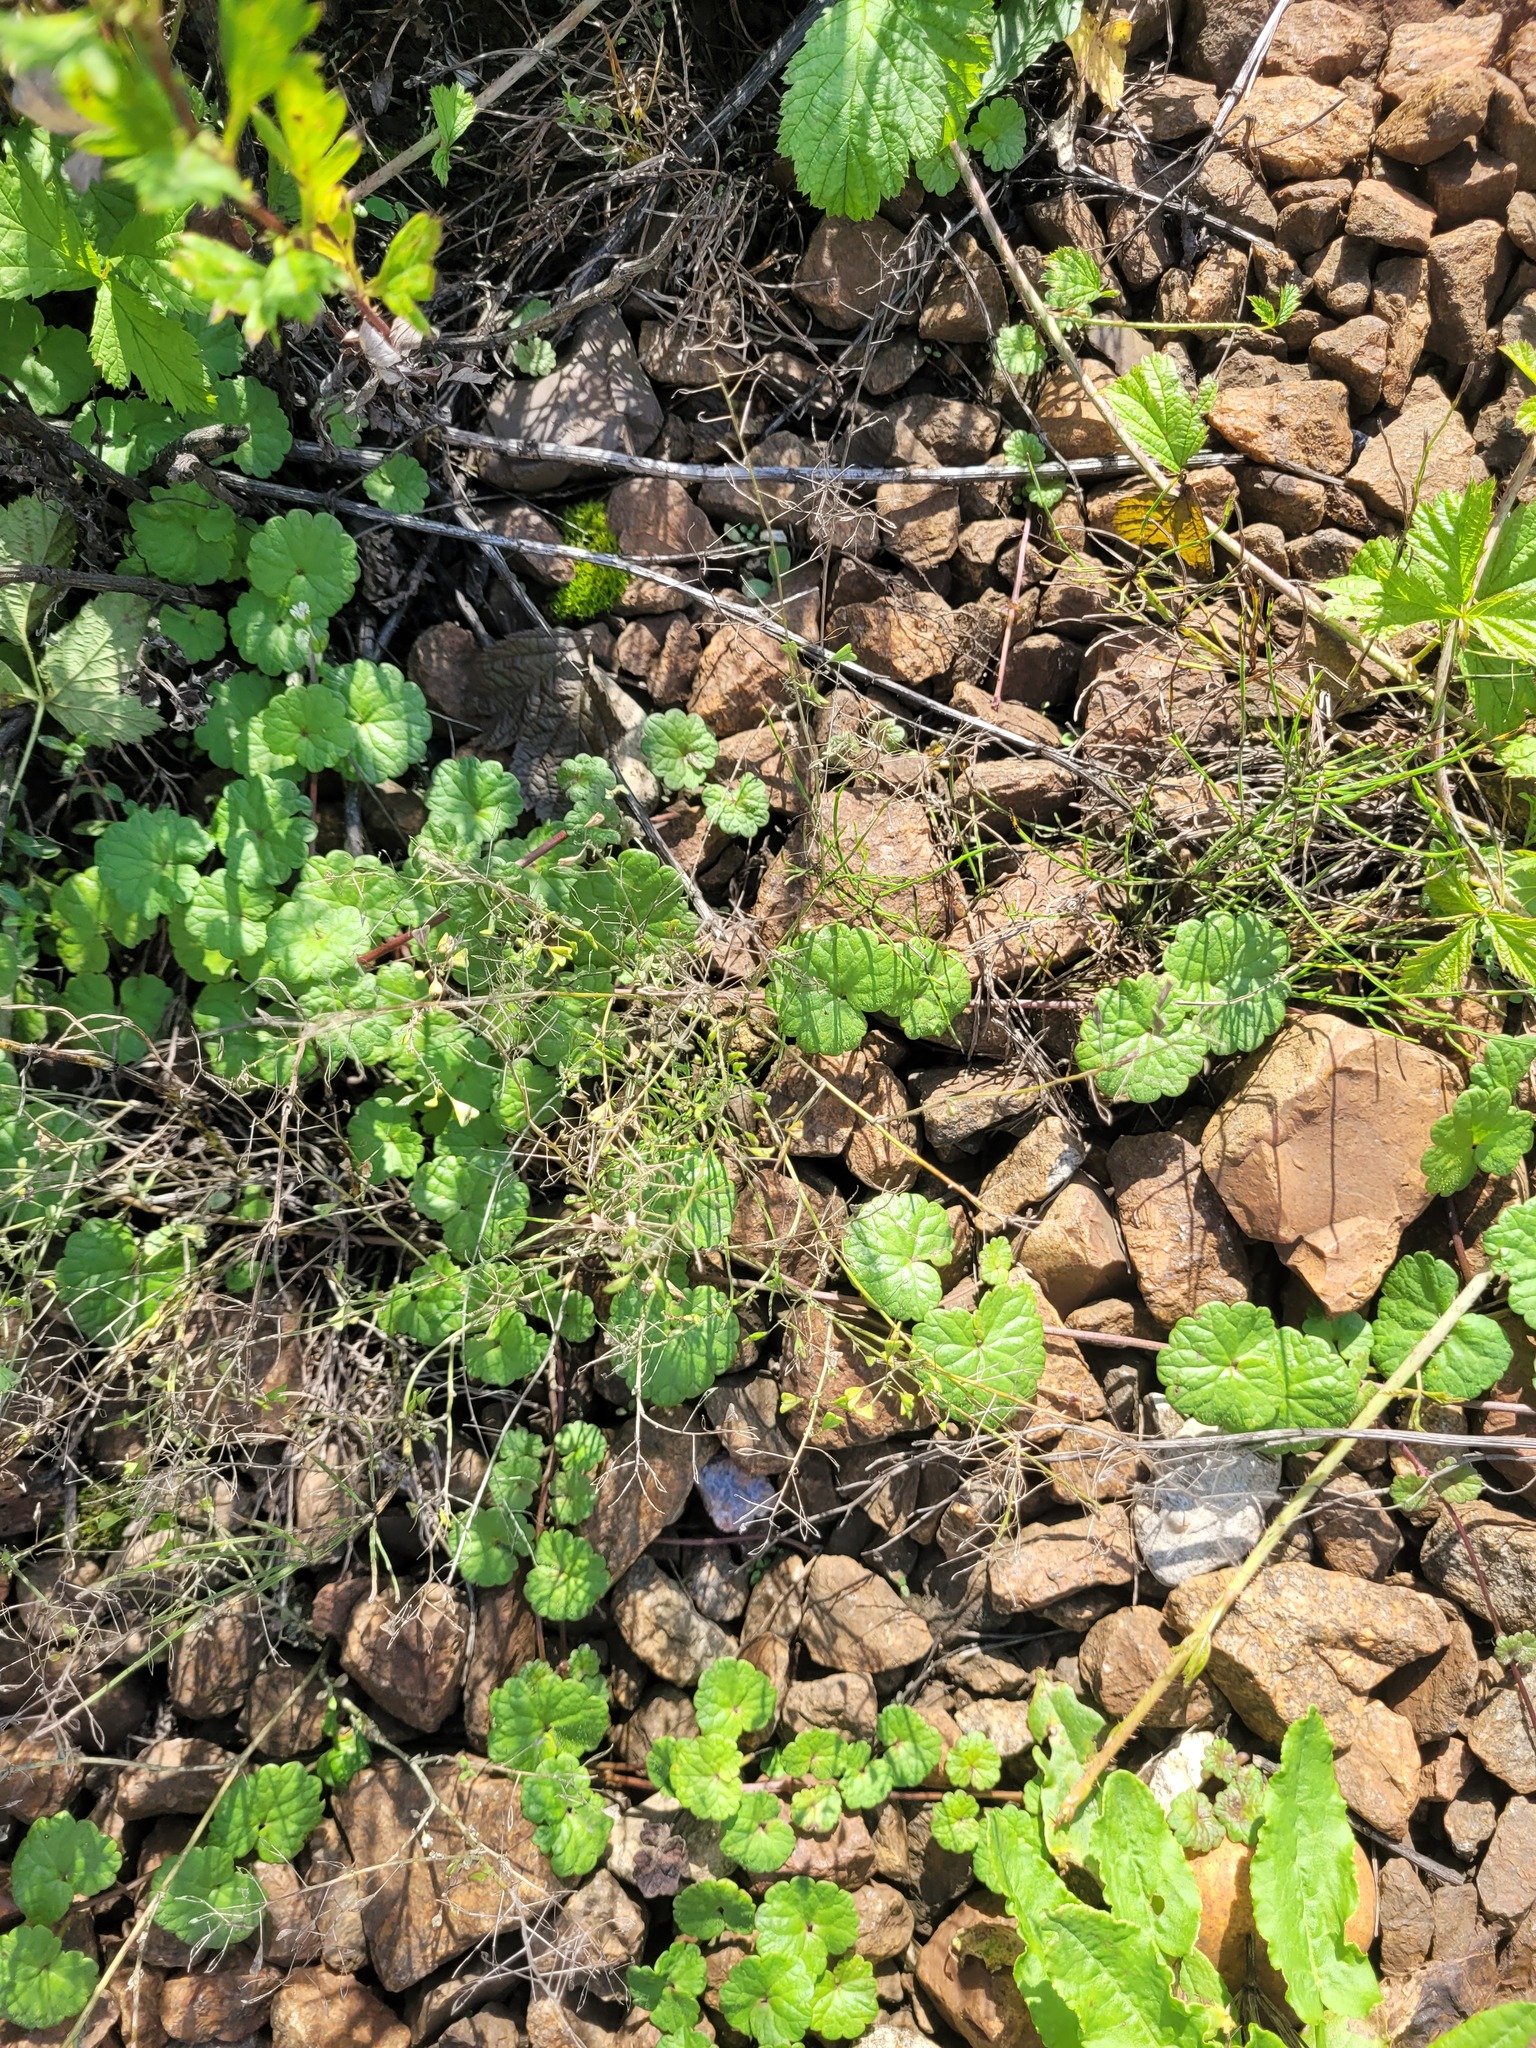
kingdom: Plantae
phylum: Tracheophyta
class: Magnoliopsida
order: Lamiales
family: Lamiaceae
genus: Glechoma
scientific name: Glechoma hederacea
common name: Ground ivy
